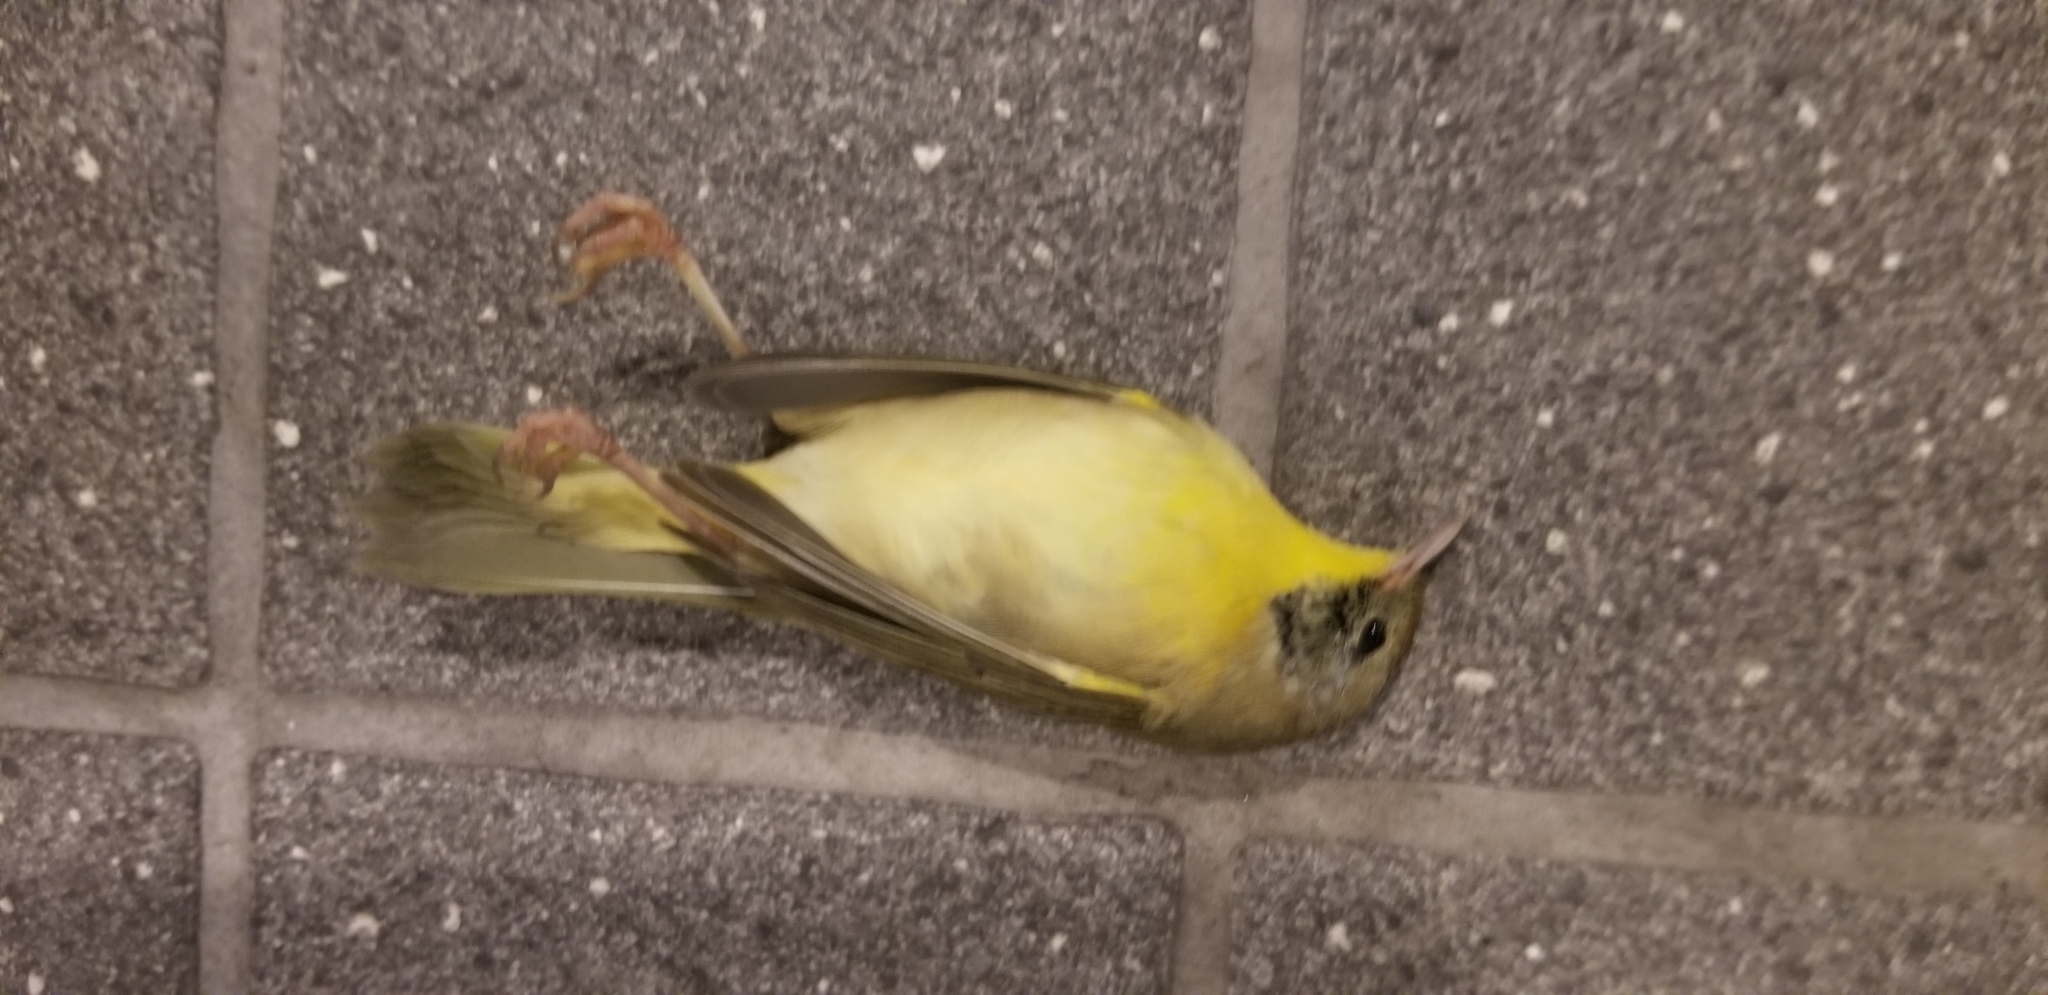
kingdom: Animalia
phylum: Chordata
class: Aves
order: Passeriformes
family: Parulidae
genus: Geothlypis
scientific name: Geothlypis trichas
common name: Common yellowthroat
